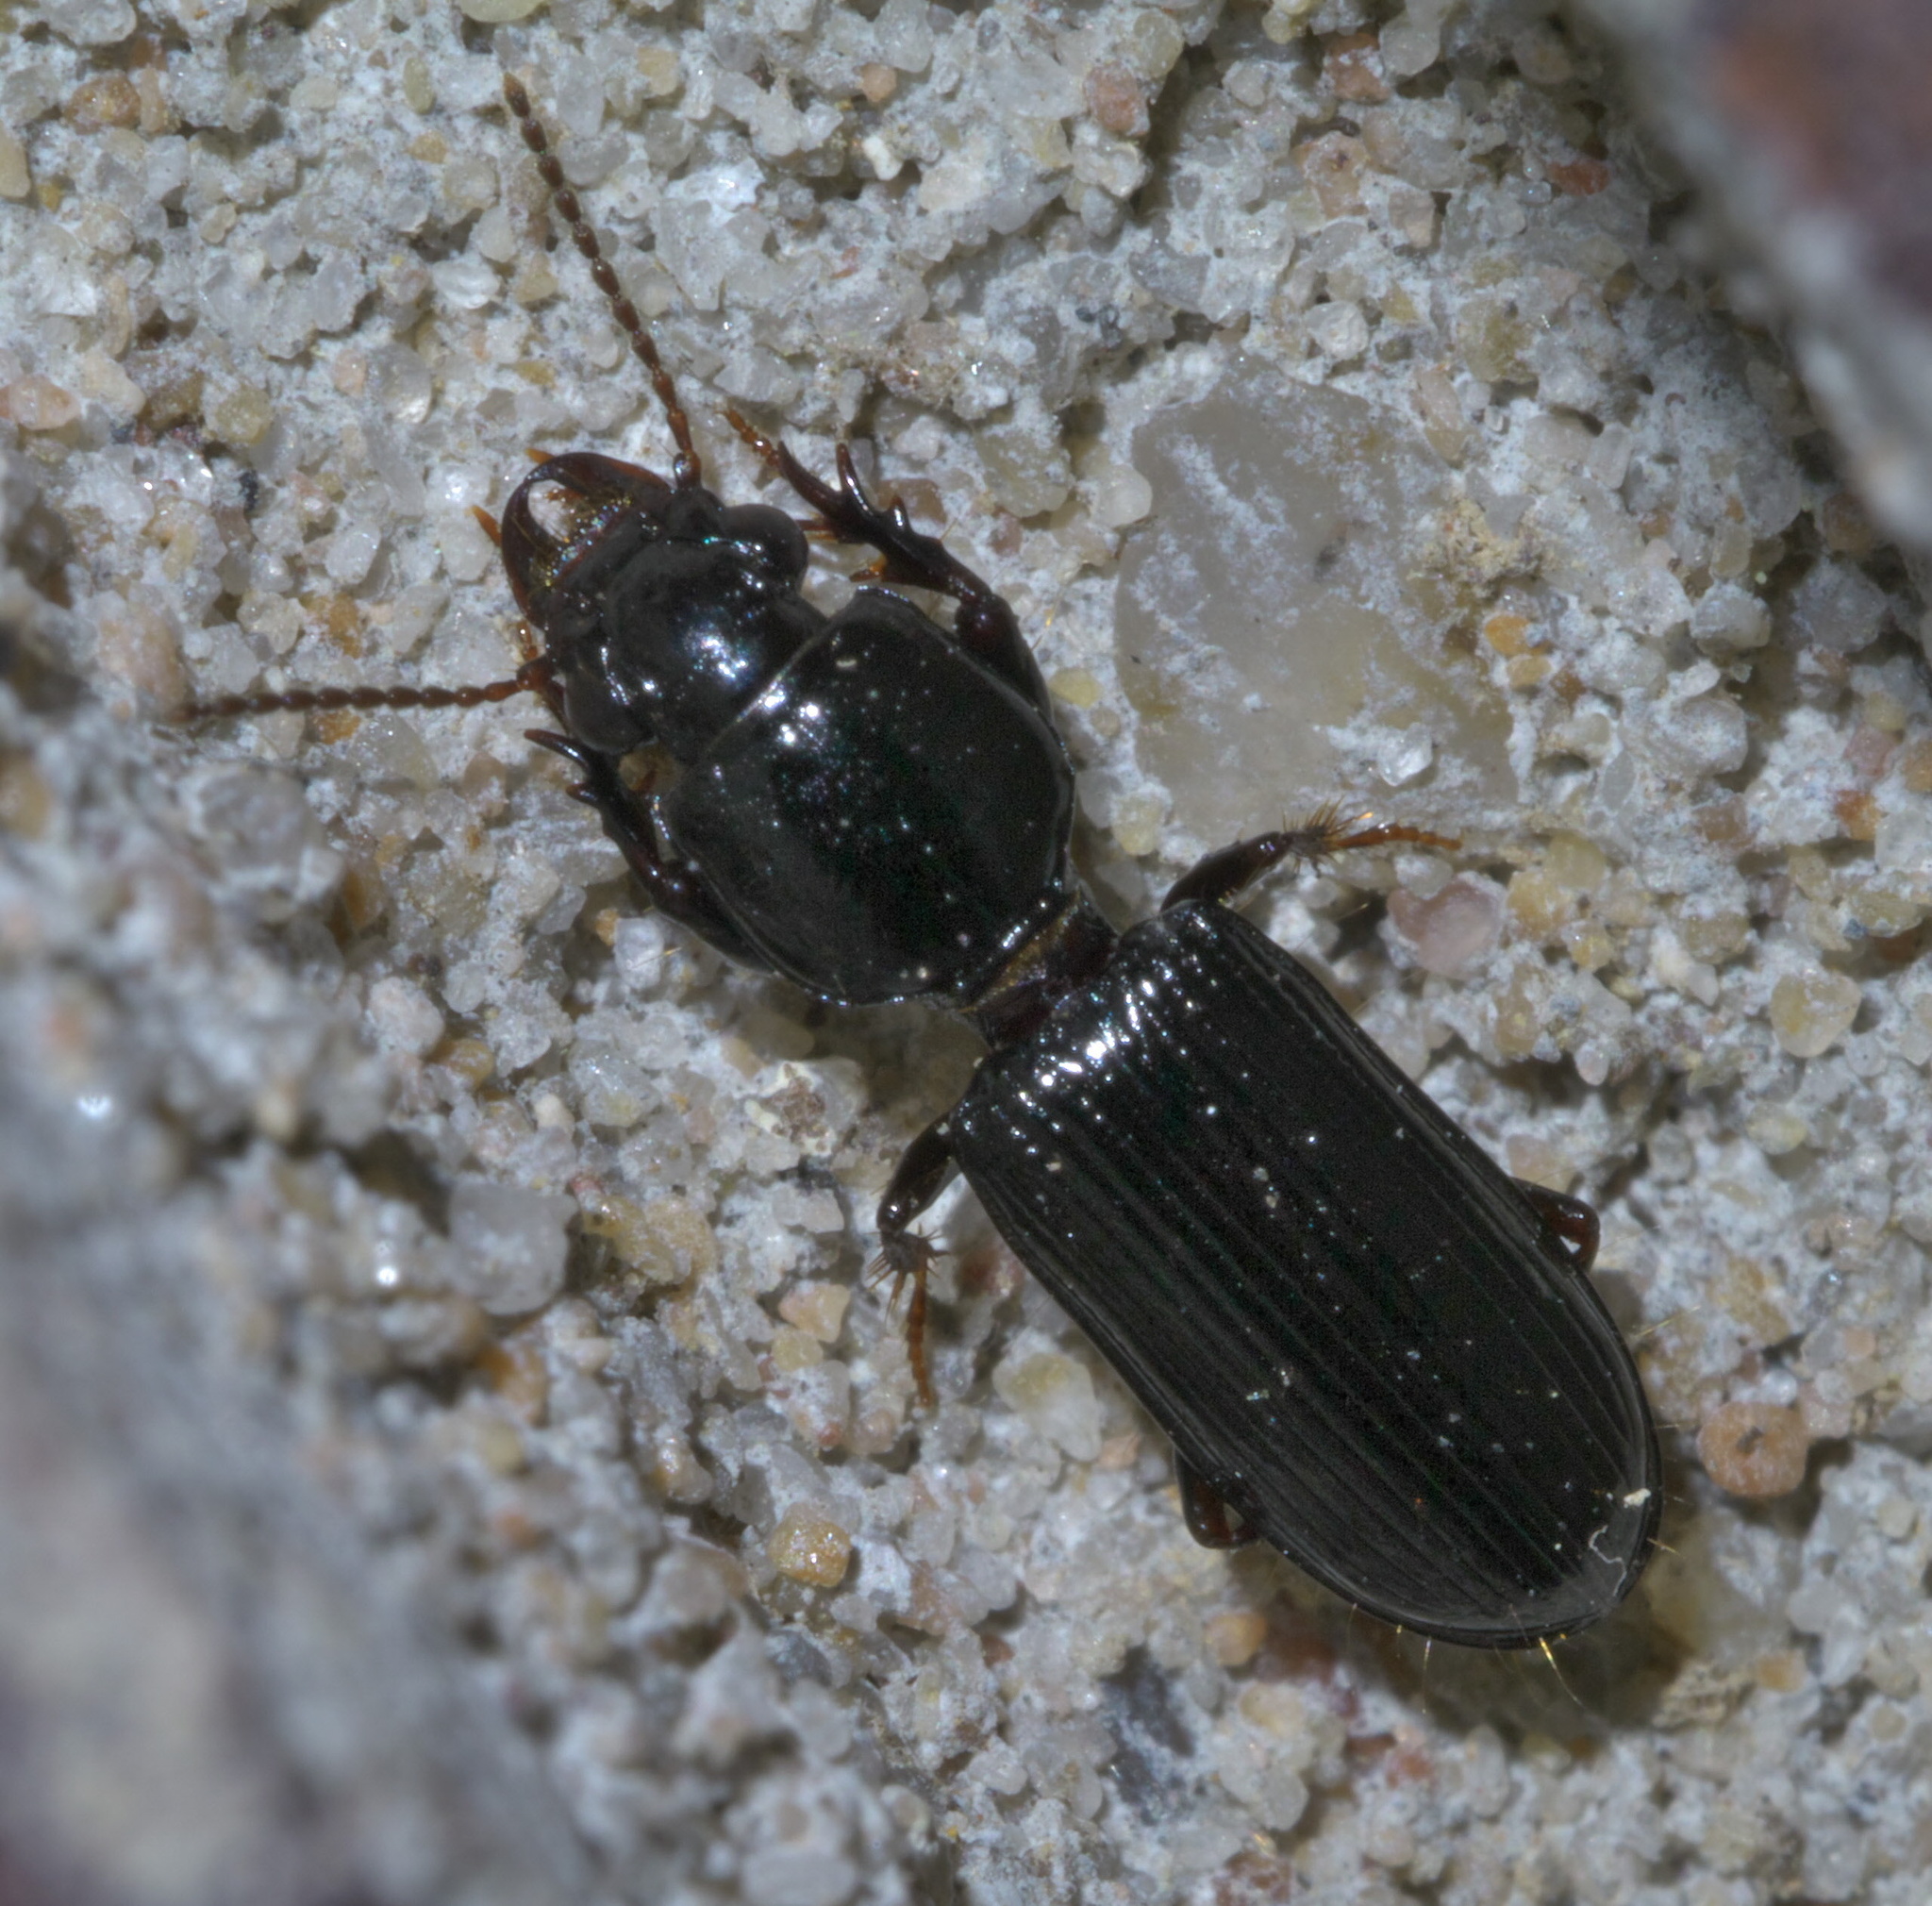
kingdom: Animalia
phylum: Arthropoda
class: Insecta
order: Coleoptera
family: Carabidae
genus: Semiclivina
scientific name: Semiclivina dentipes
